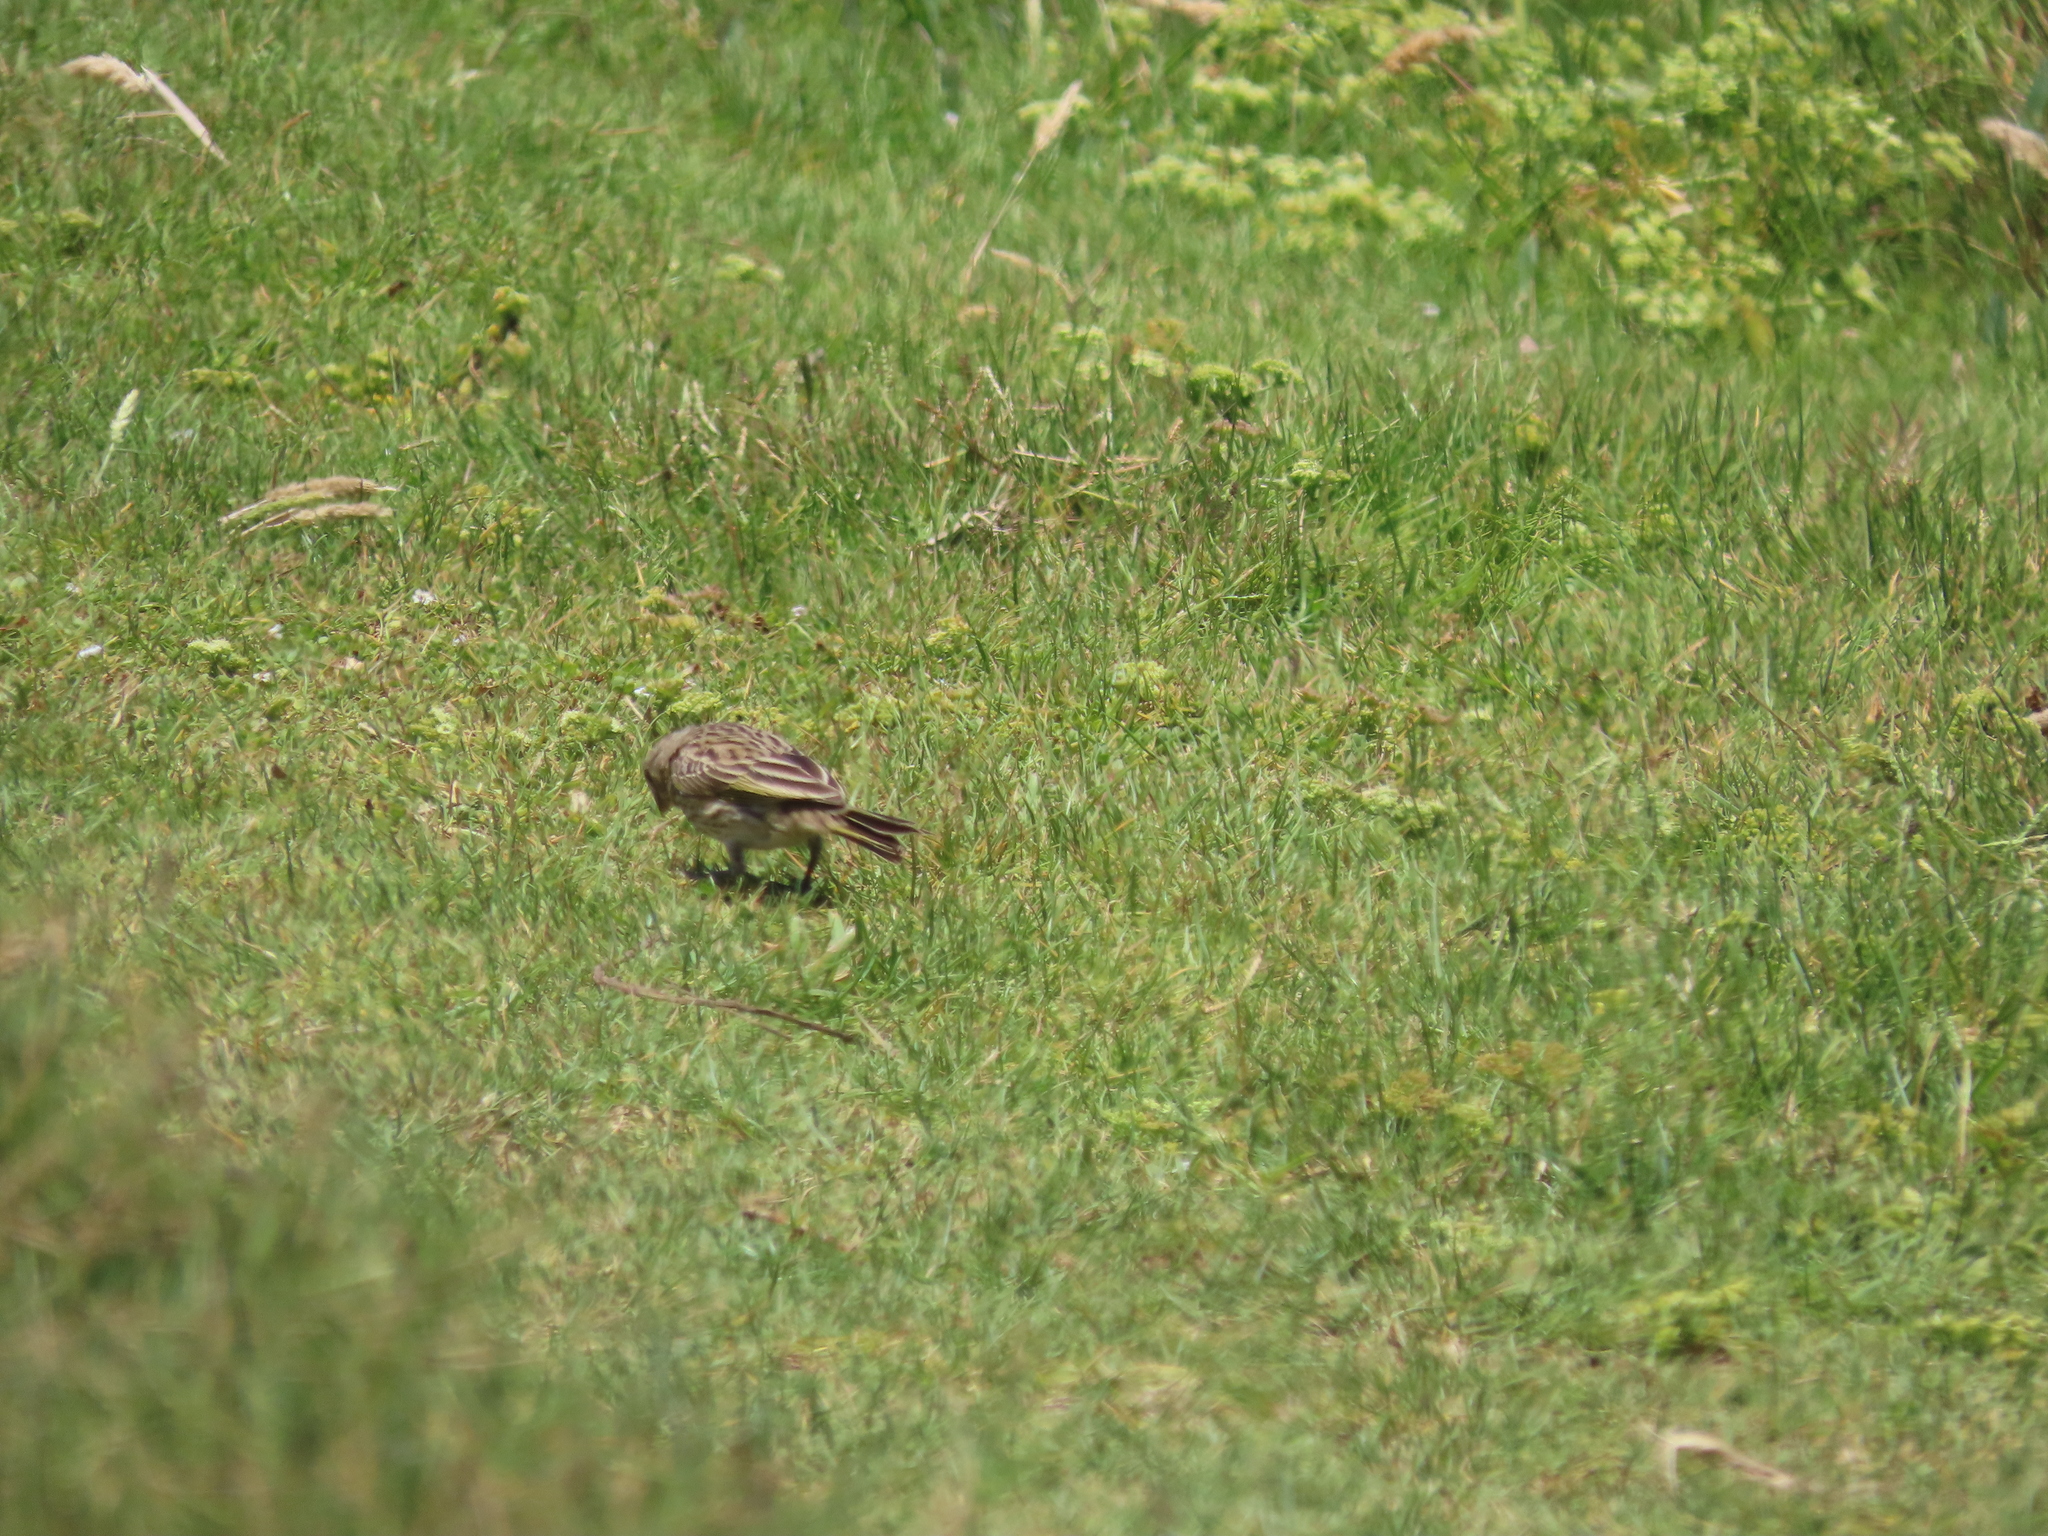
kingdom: Animalia
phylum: Chordata
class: Aves
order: Passeriformes
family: Thraupidae
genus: Sicalis
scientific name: Sicalis flaveola
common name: Saffron finch
